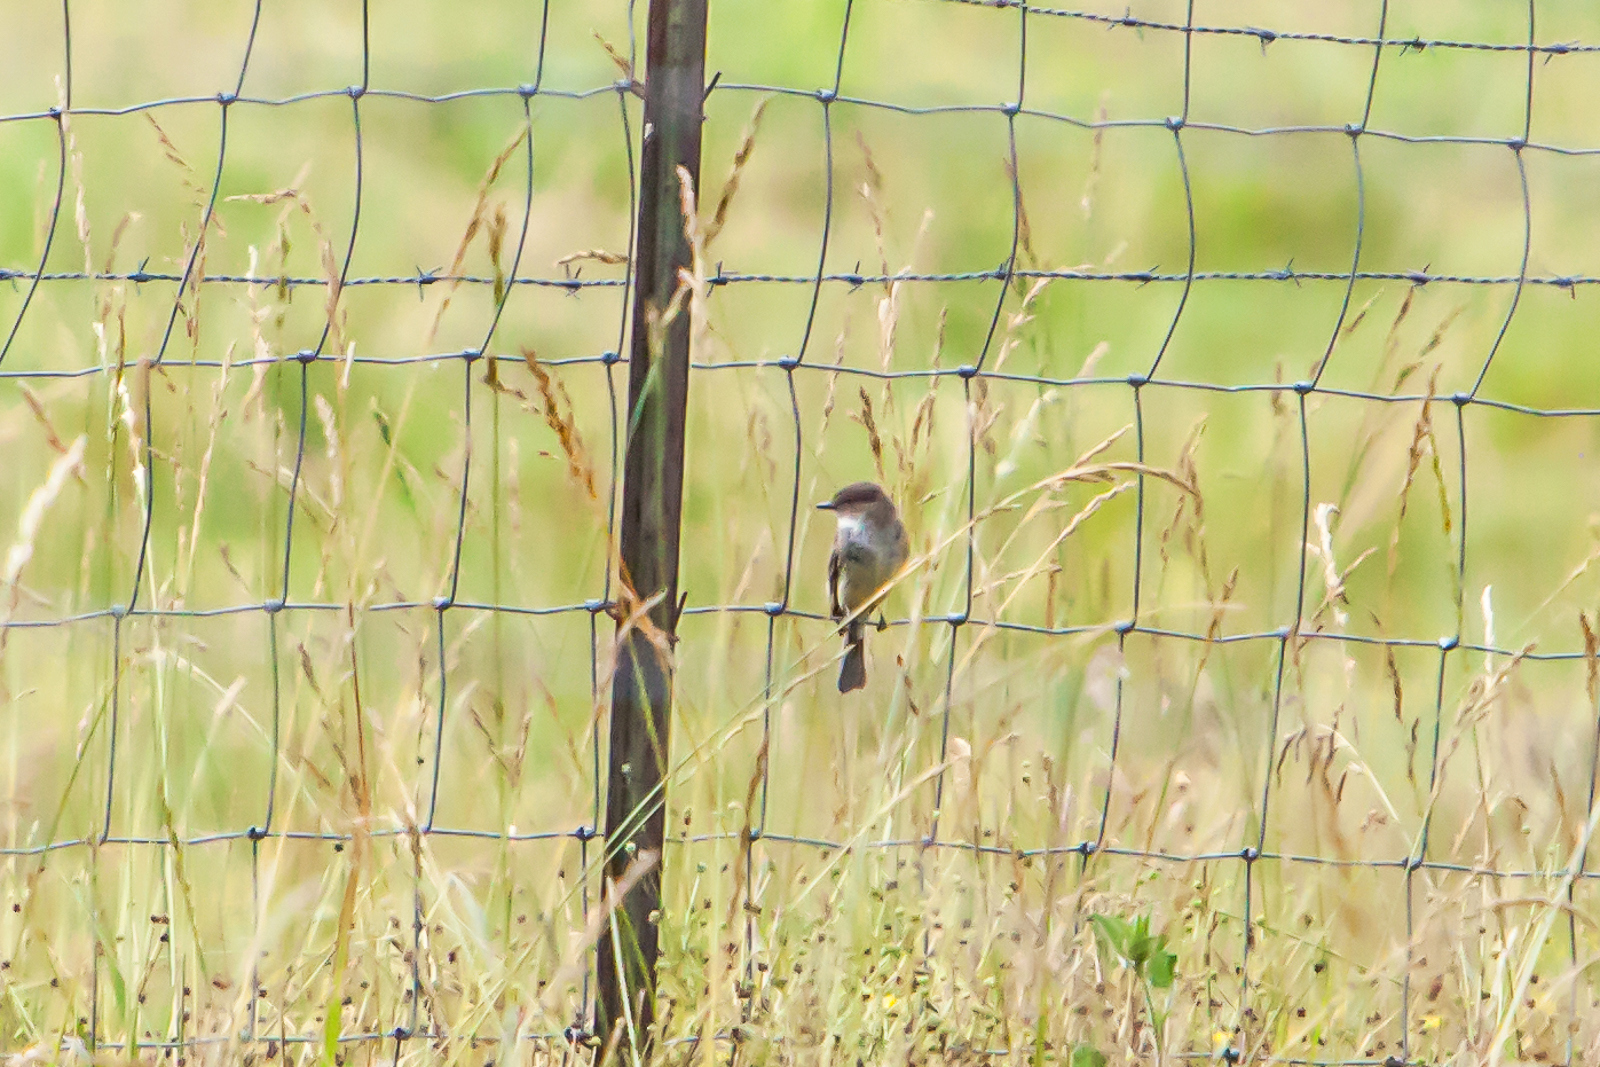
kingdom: Animalia
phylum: Chordata
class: Aves
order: Passeriformes
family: Tyrannidae
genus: Sayornis
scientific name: Sayornis phoebe
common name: Eastern phoebe
